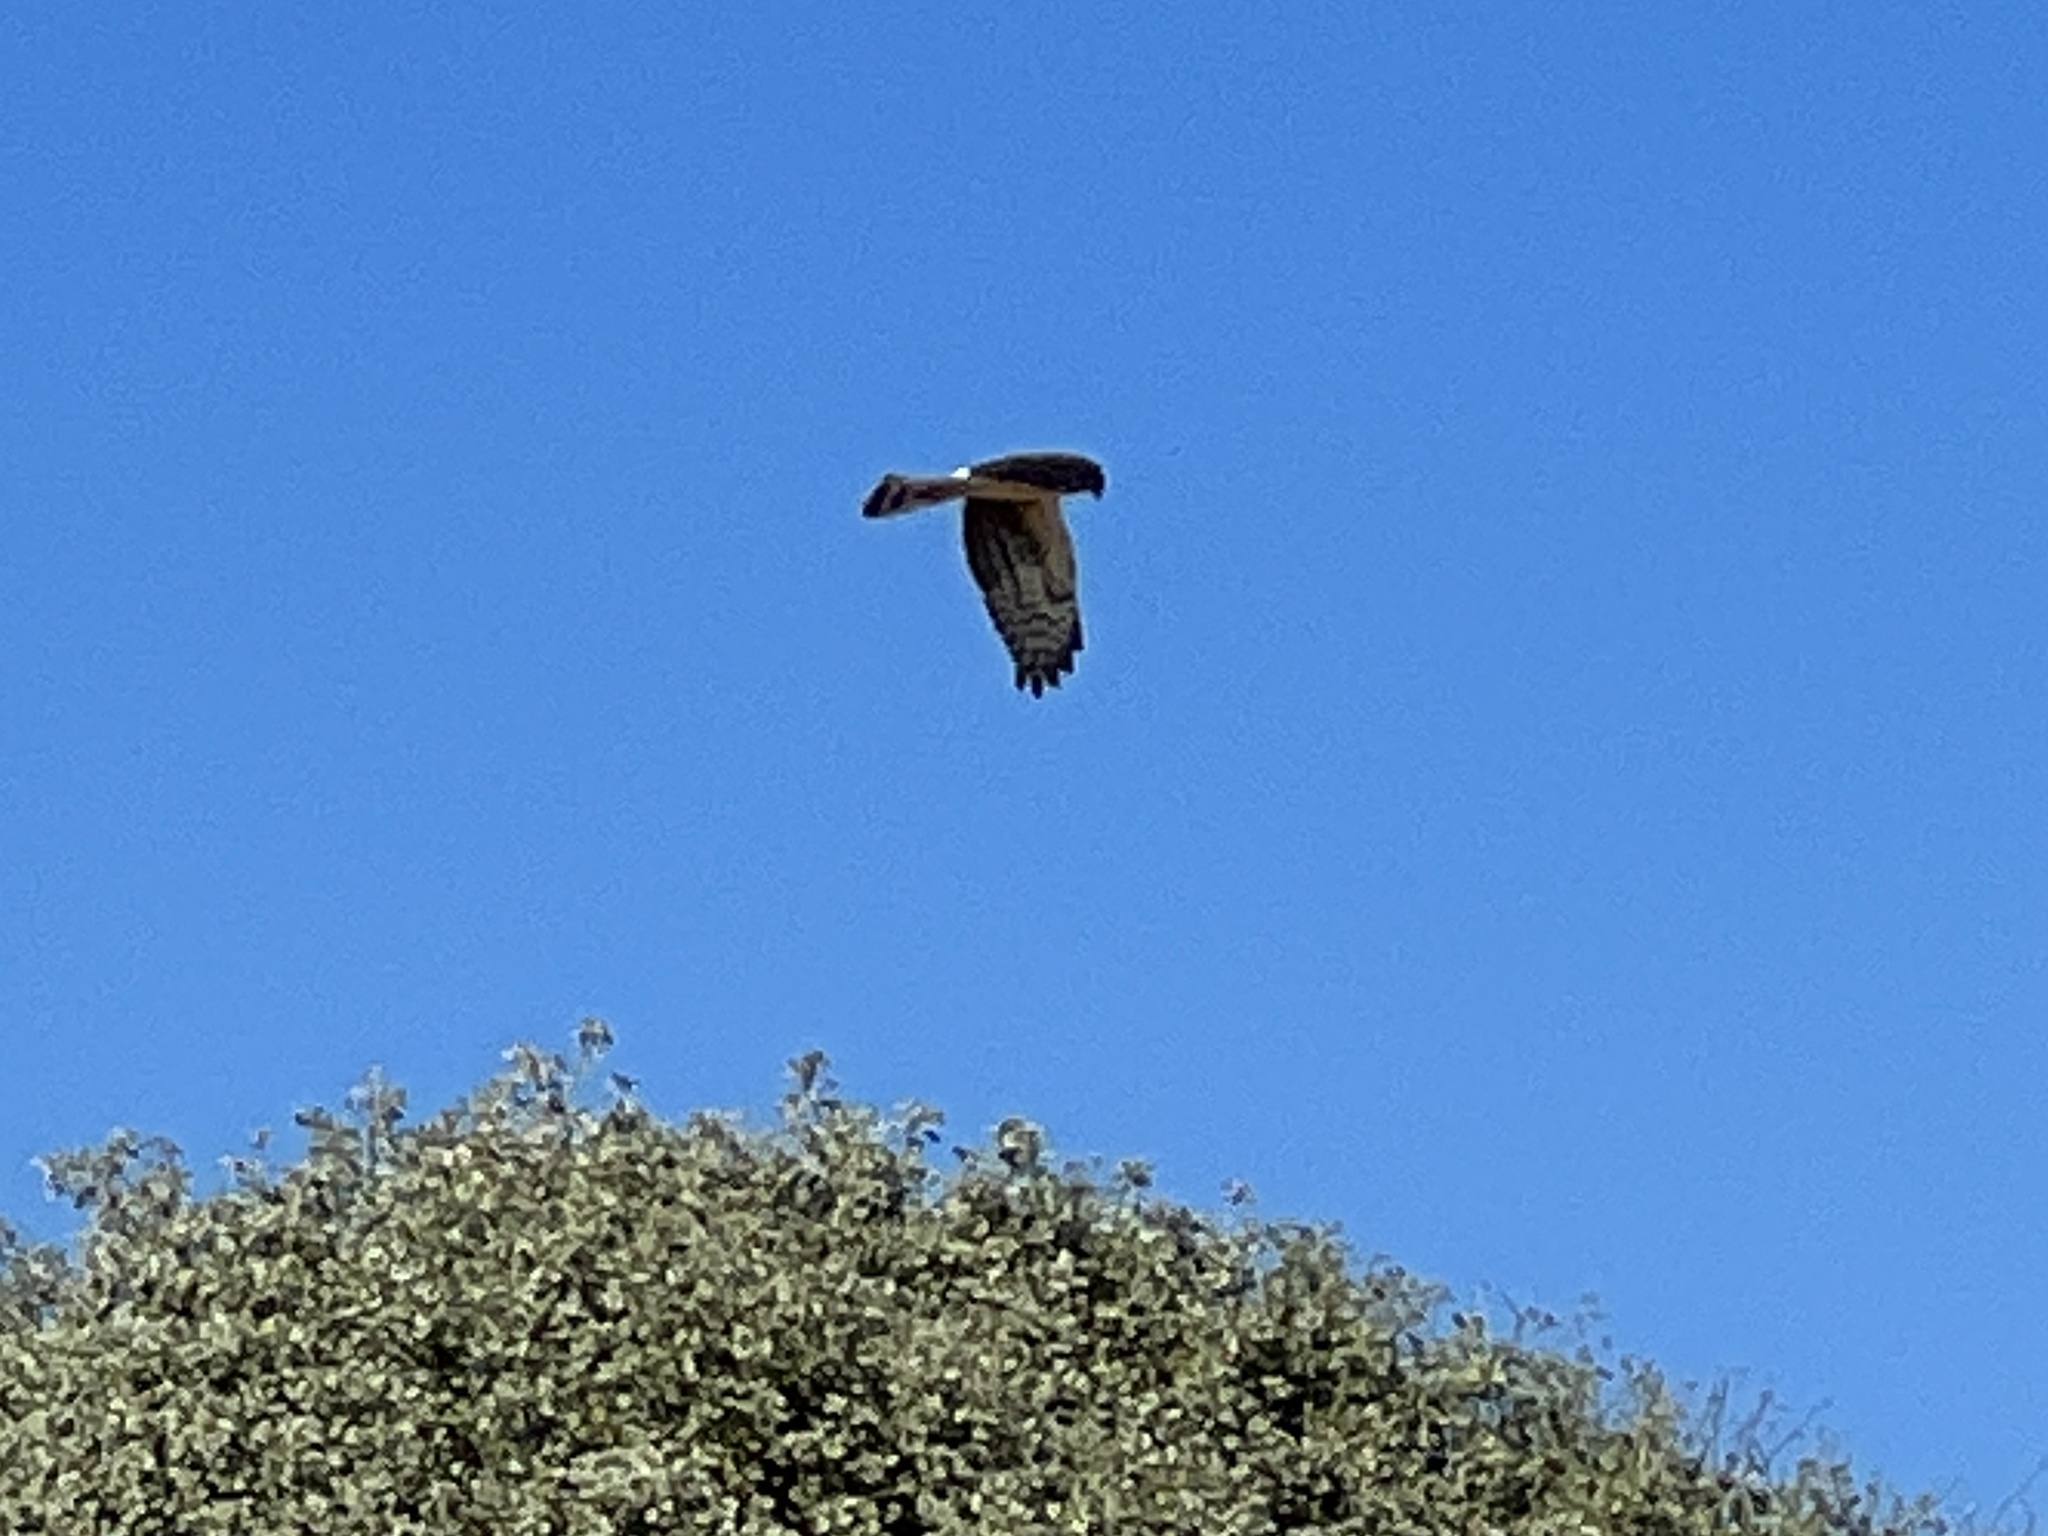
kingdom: Animalia
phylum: Chordata
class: Aves
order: Accipitriformes
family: Accipitridae
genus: Circus
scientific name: Circus cyaneus
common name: Hen harrier
